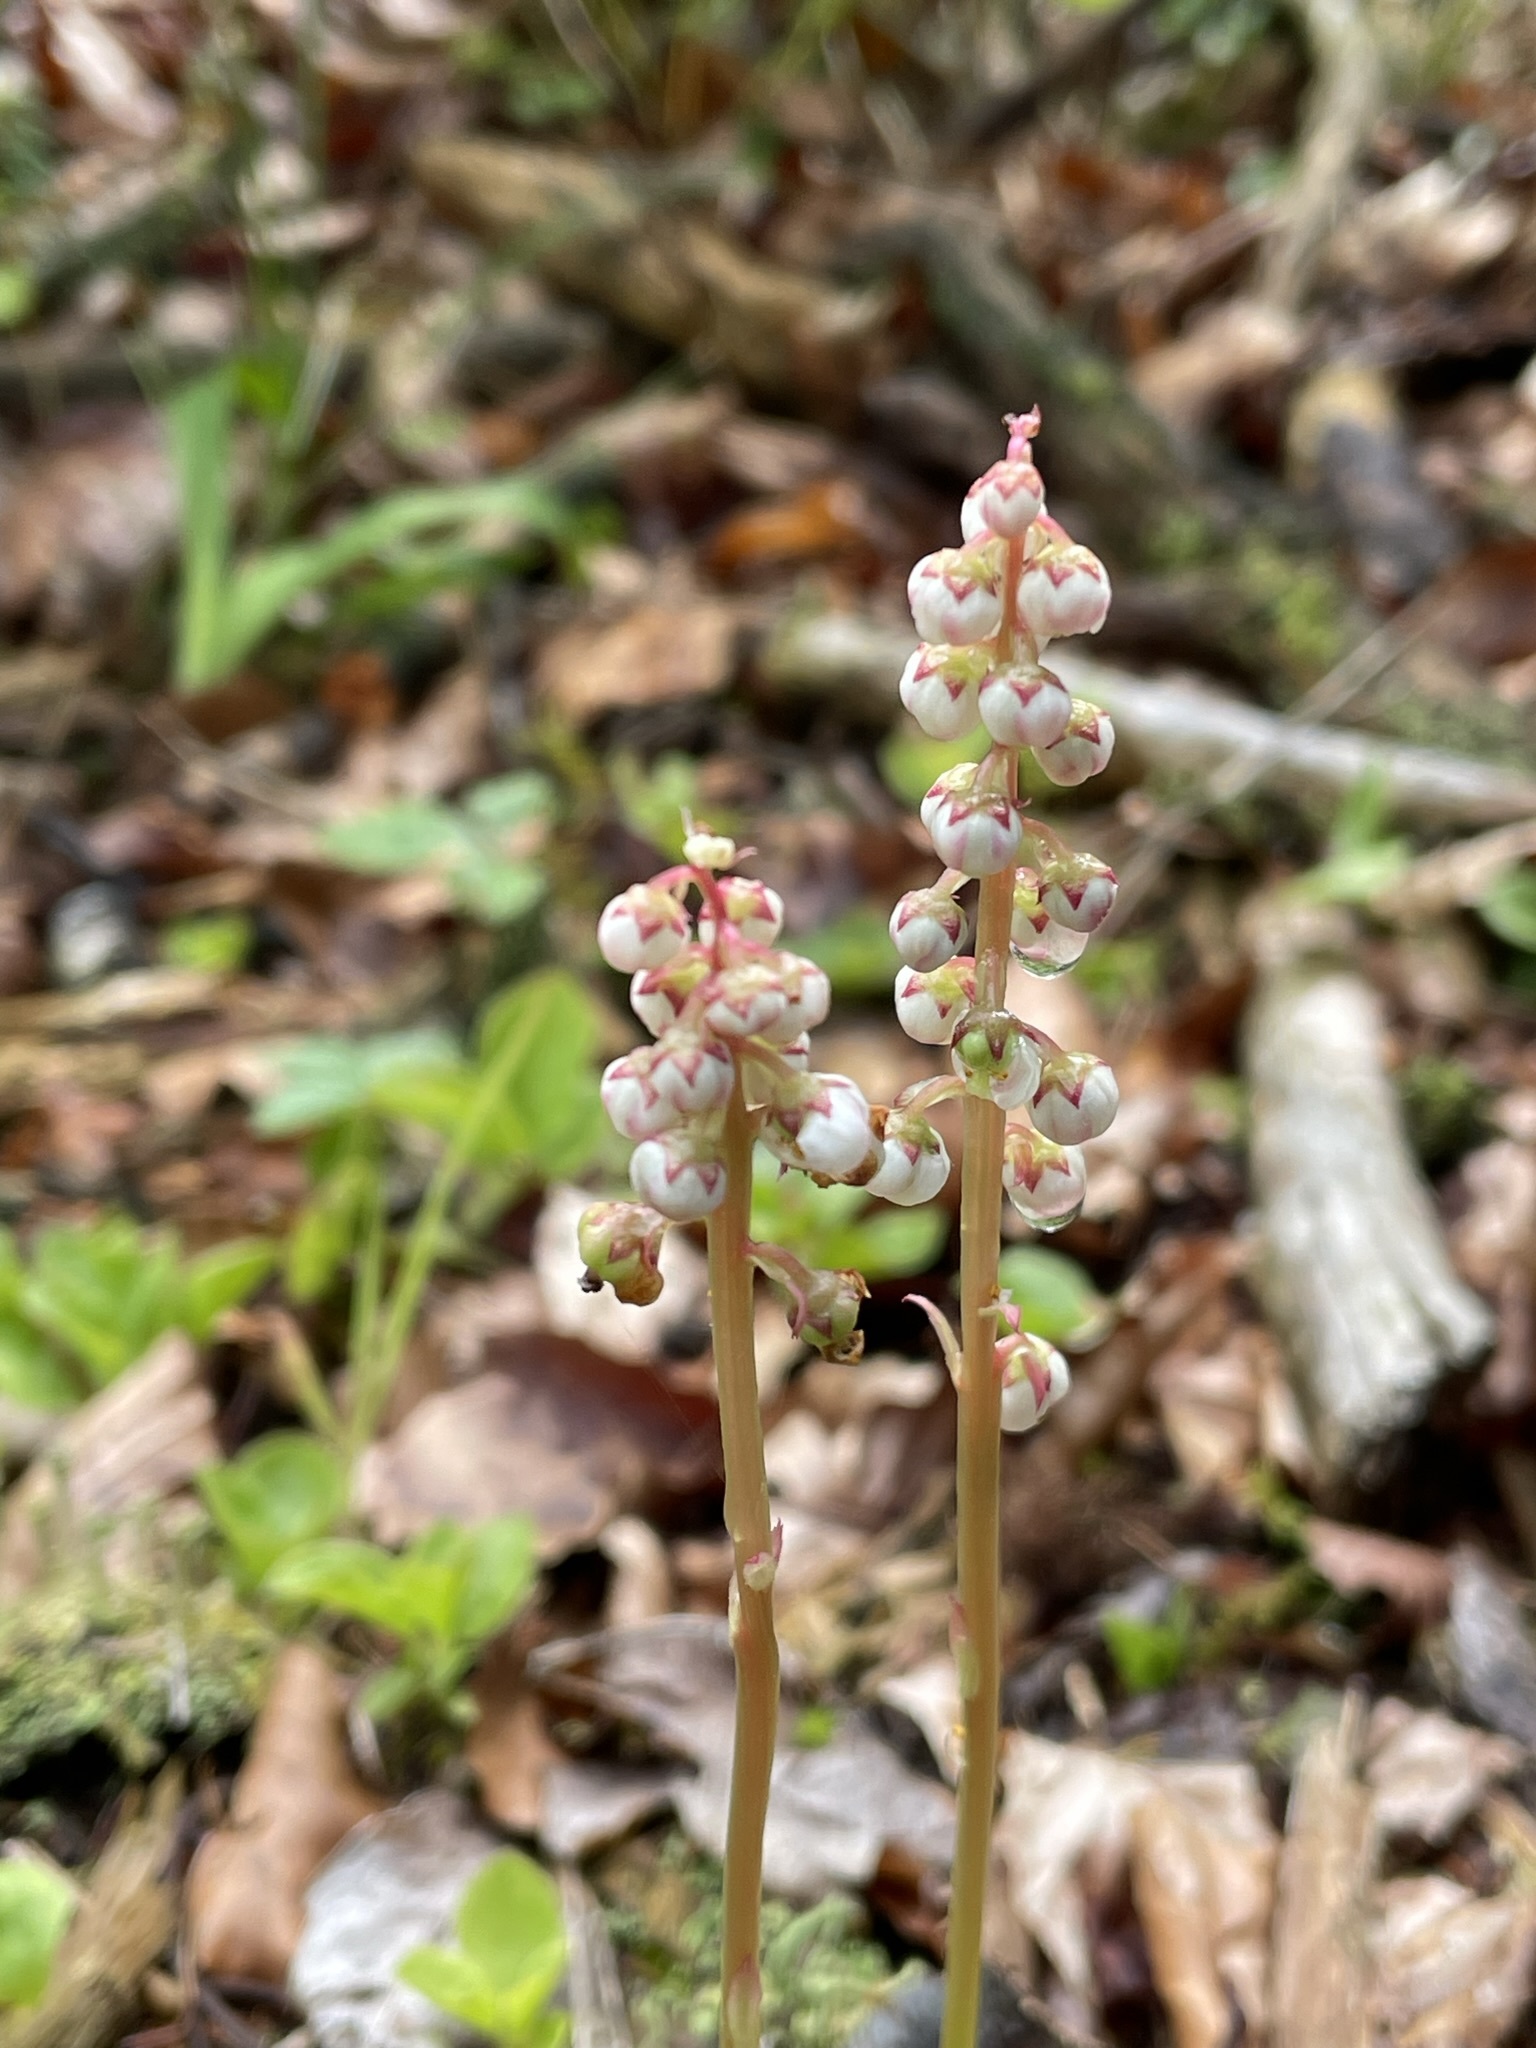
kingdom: Plantae
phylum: Tracheophyta
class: Magnoliopsida
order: Ericales
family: Ericaceae
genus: Pyrola
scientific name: Pyrola minor
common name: Common wintergreen
